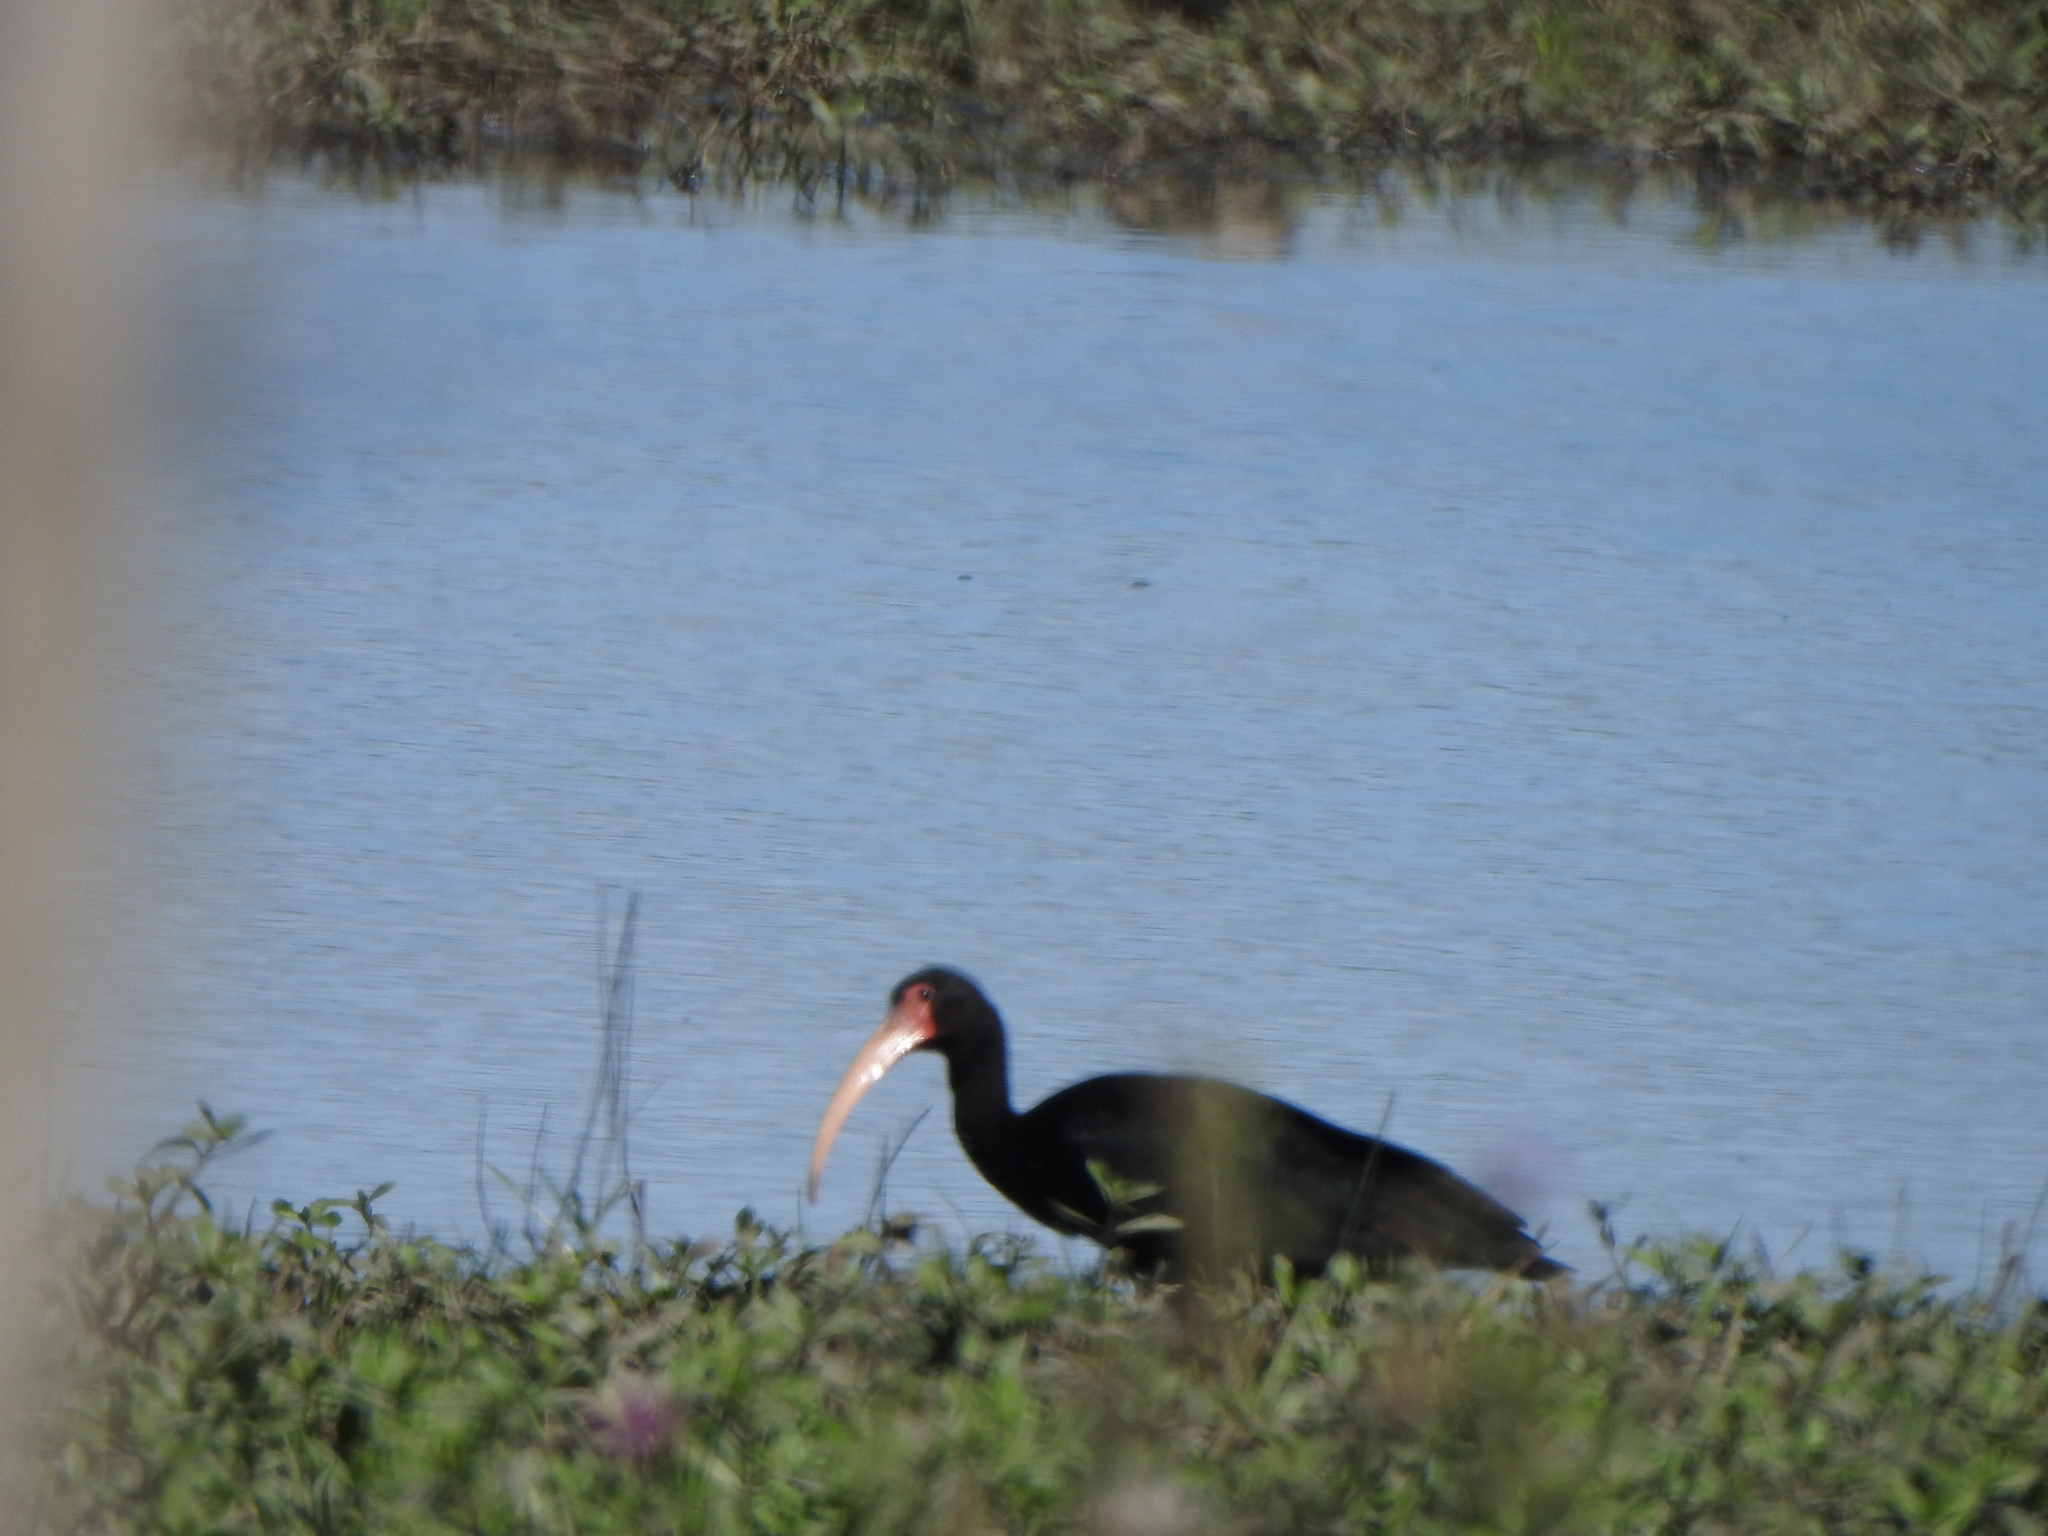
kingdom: Animalia
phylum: Chordata
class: Aves
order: Pelecaniformes
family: Threskiornithidae
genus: Phimosus
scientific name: Phimosus infuscatus
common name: Bare-faced ibis
